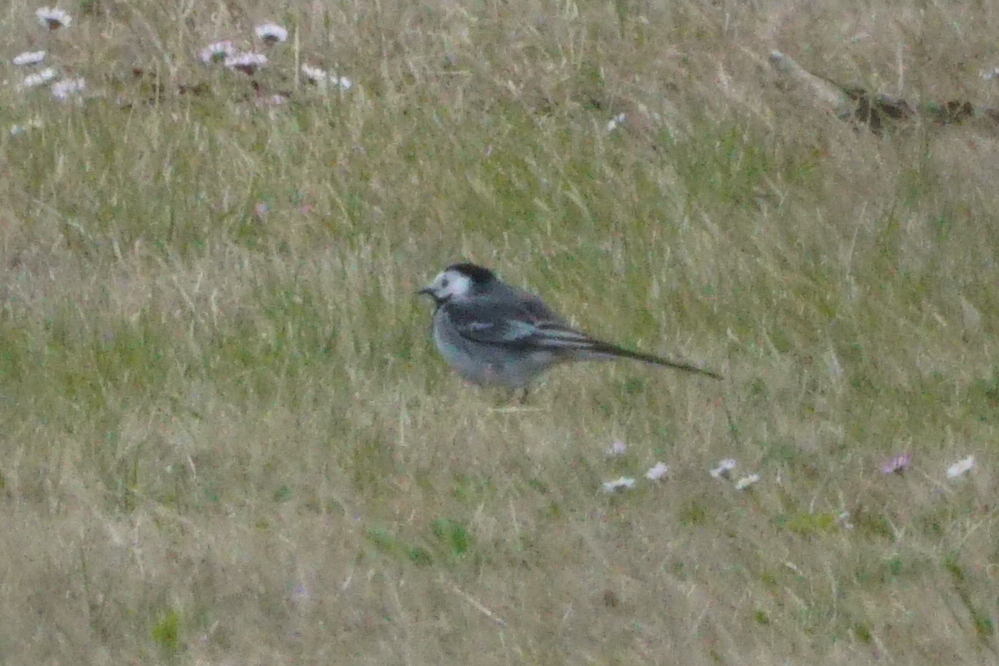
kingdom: Animalia
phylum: Chordata
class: Aves
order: Passeriformes
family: Motacillidae
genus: Motacilla
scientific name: Motacilla alba
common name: White wagtail
